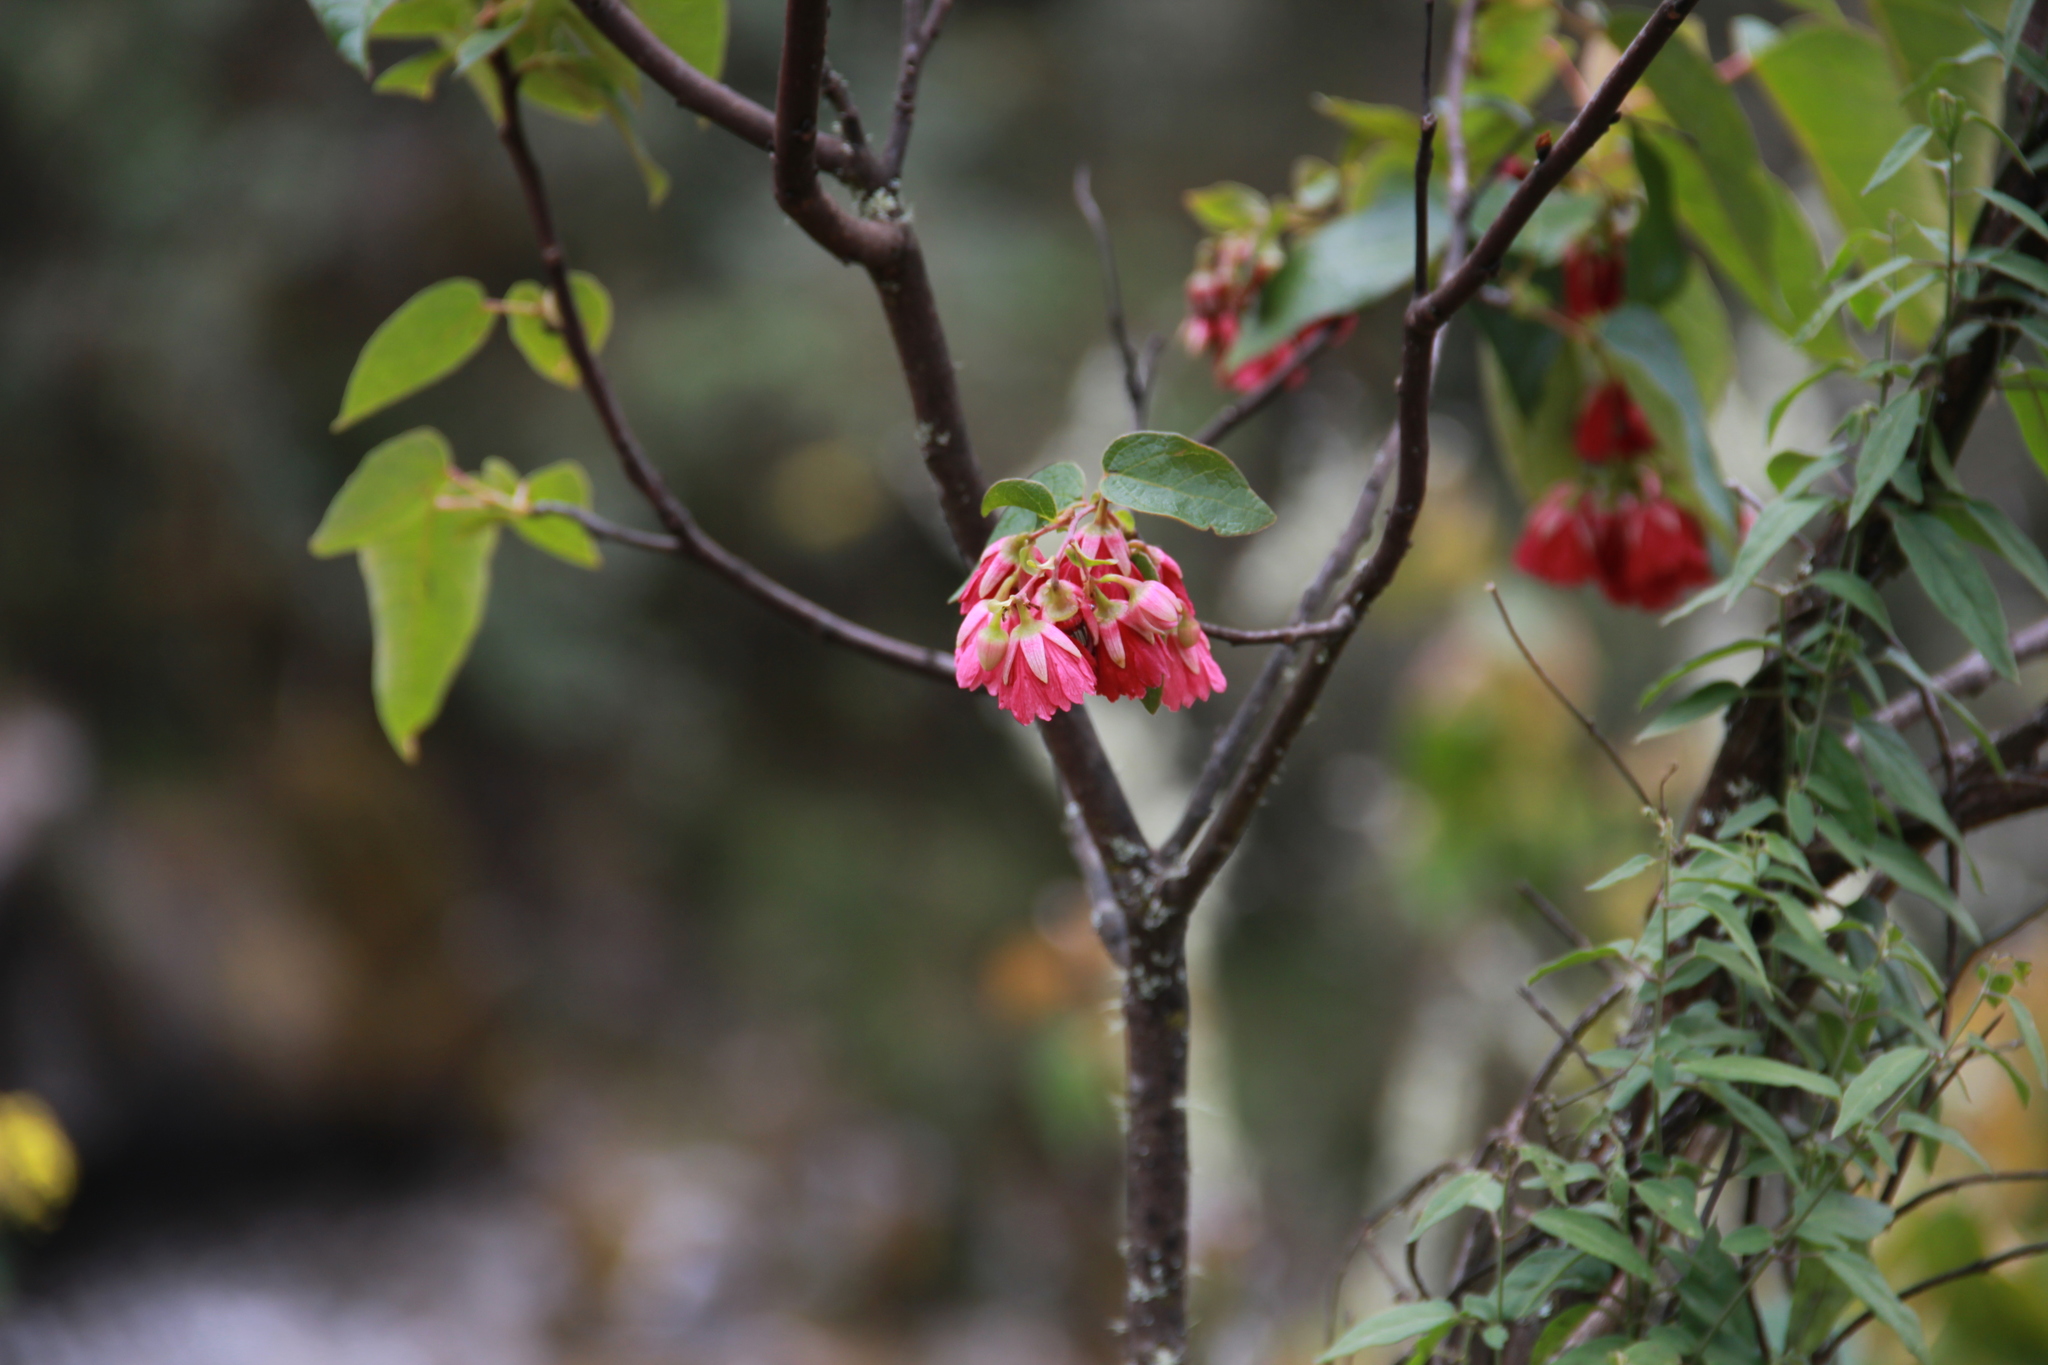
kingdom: Plantae
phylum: Tracheophyta
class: Magnoliopsida
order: Oxalidales
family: Elaeocarpaceae
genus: Vallea
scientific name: Vallea stipularis
